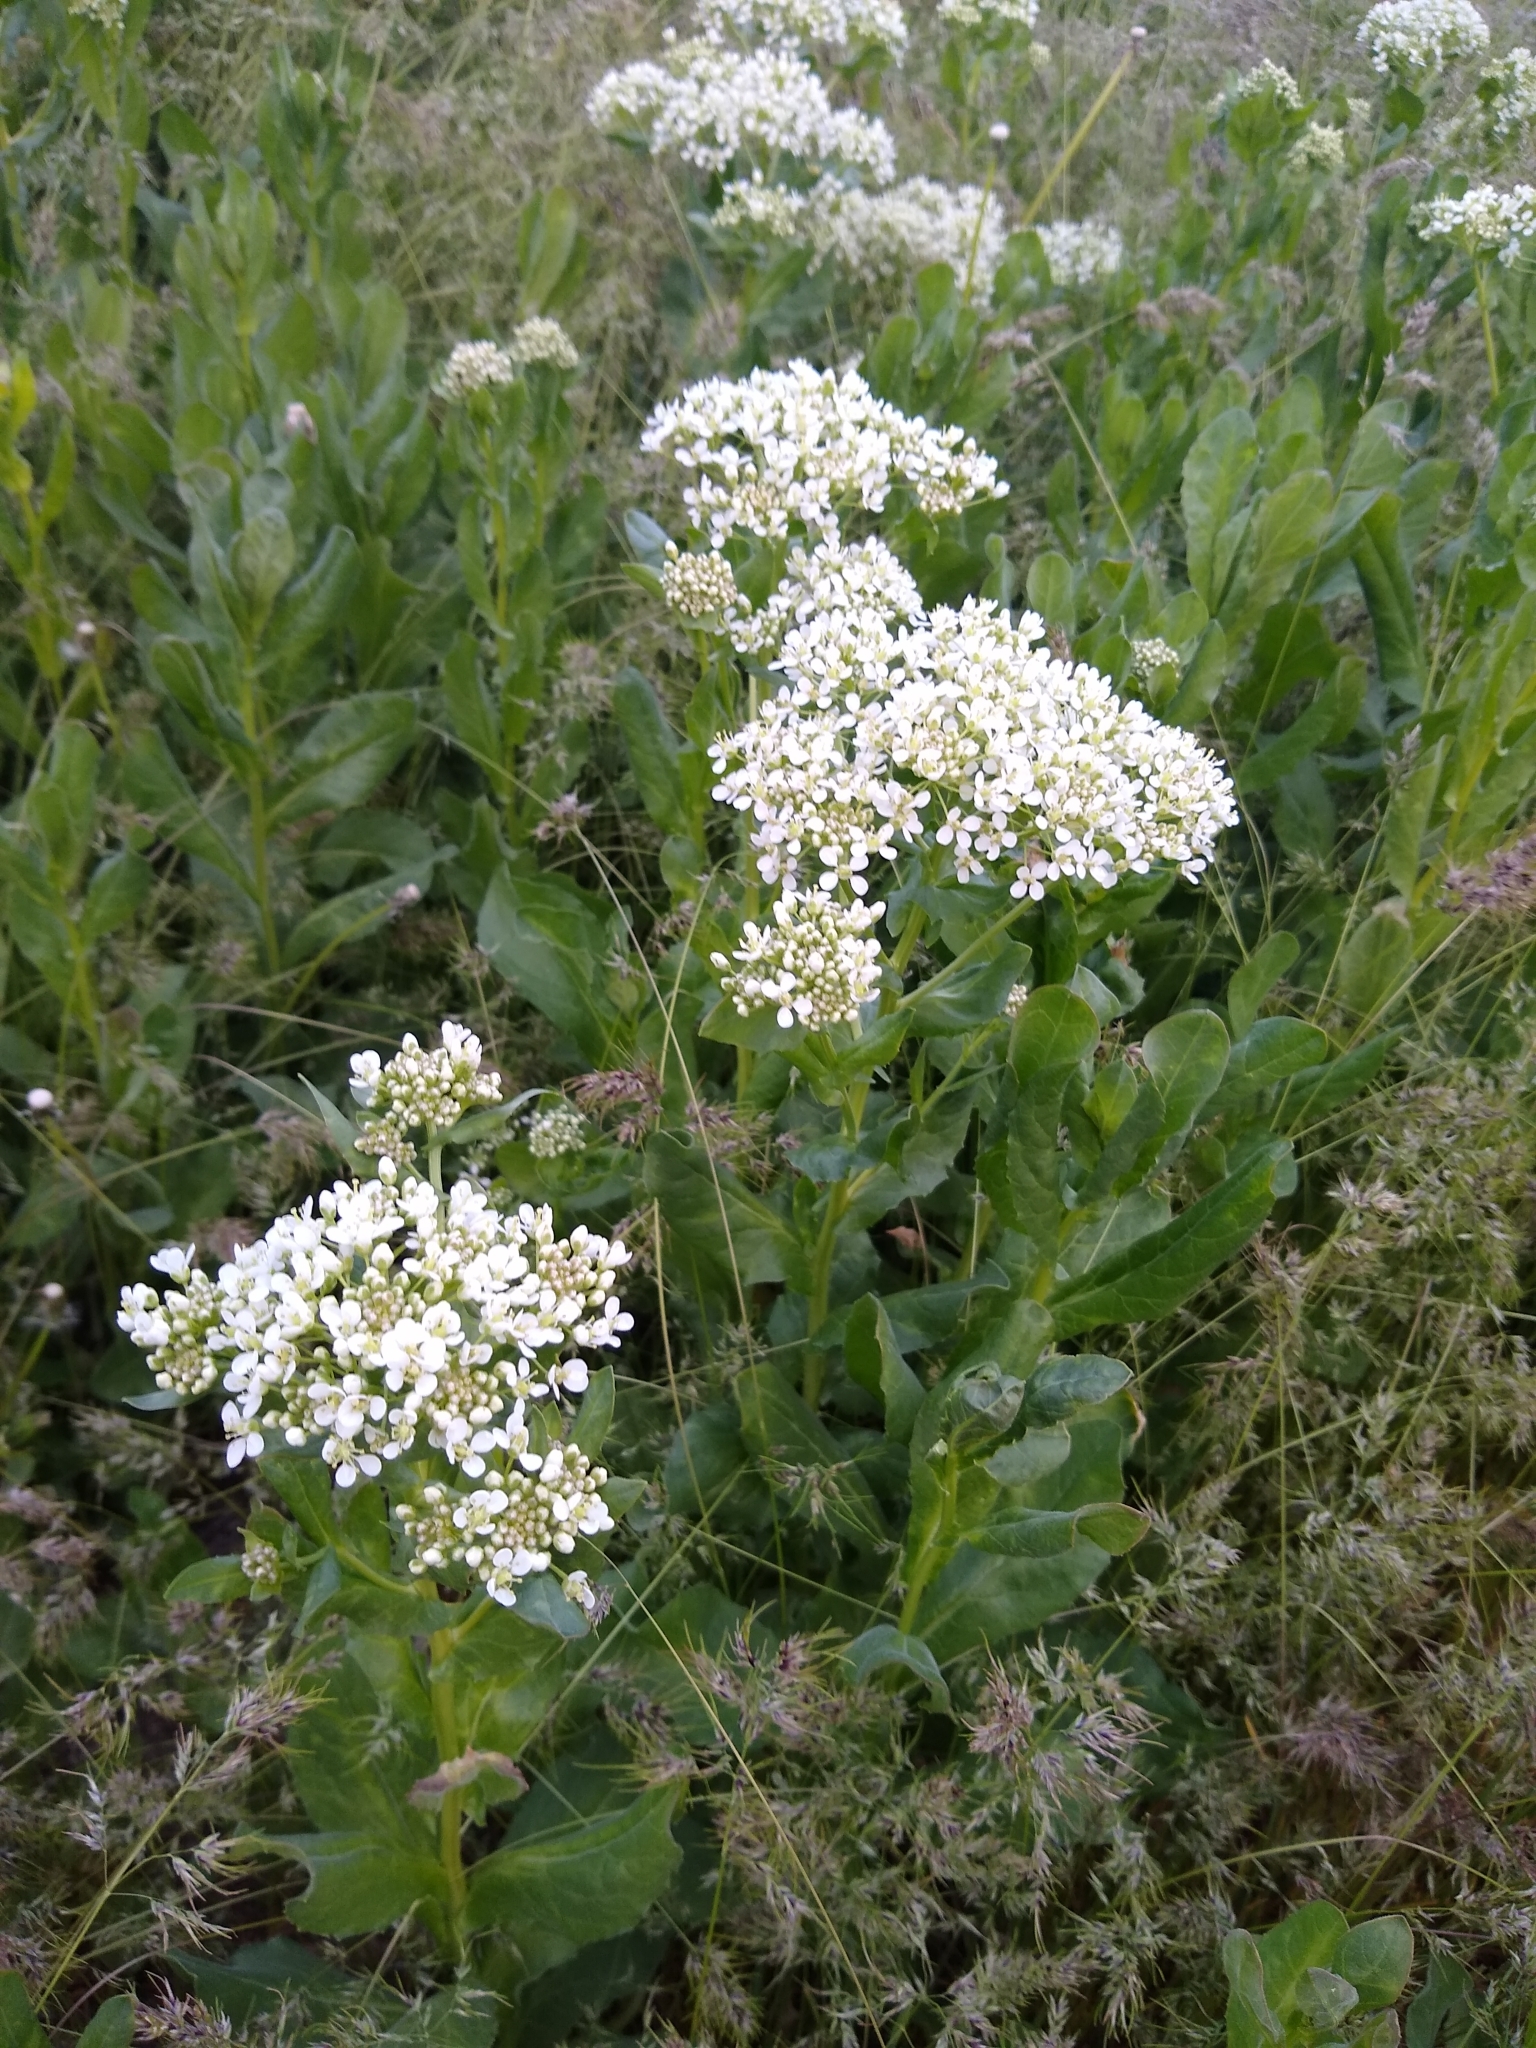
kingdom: Plantae
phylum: Tracheophyta
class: Magnoliopsida
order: Brassicales
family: Brassicaceae
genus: Lepidium
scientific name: Lepidium draba
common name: Hoary cress
